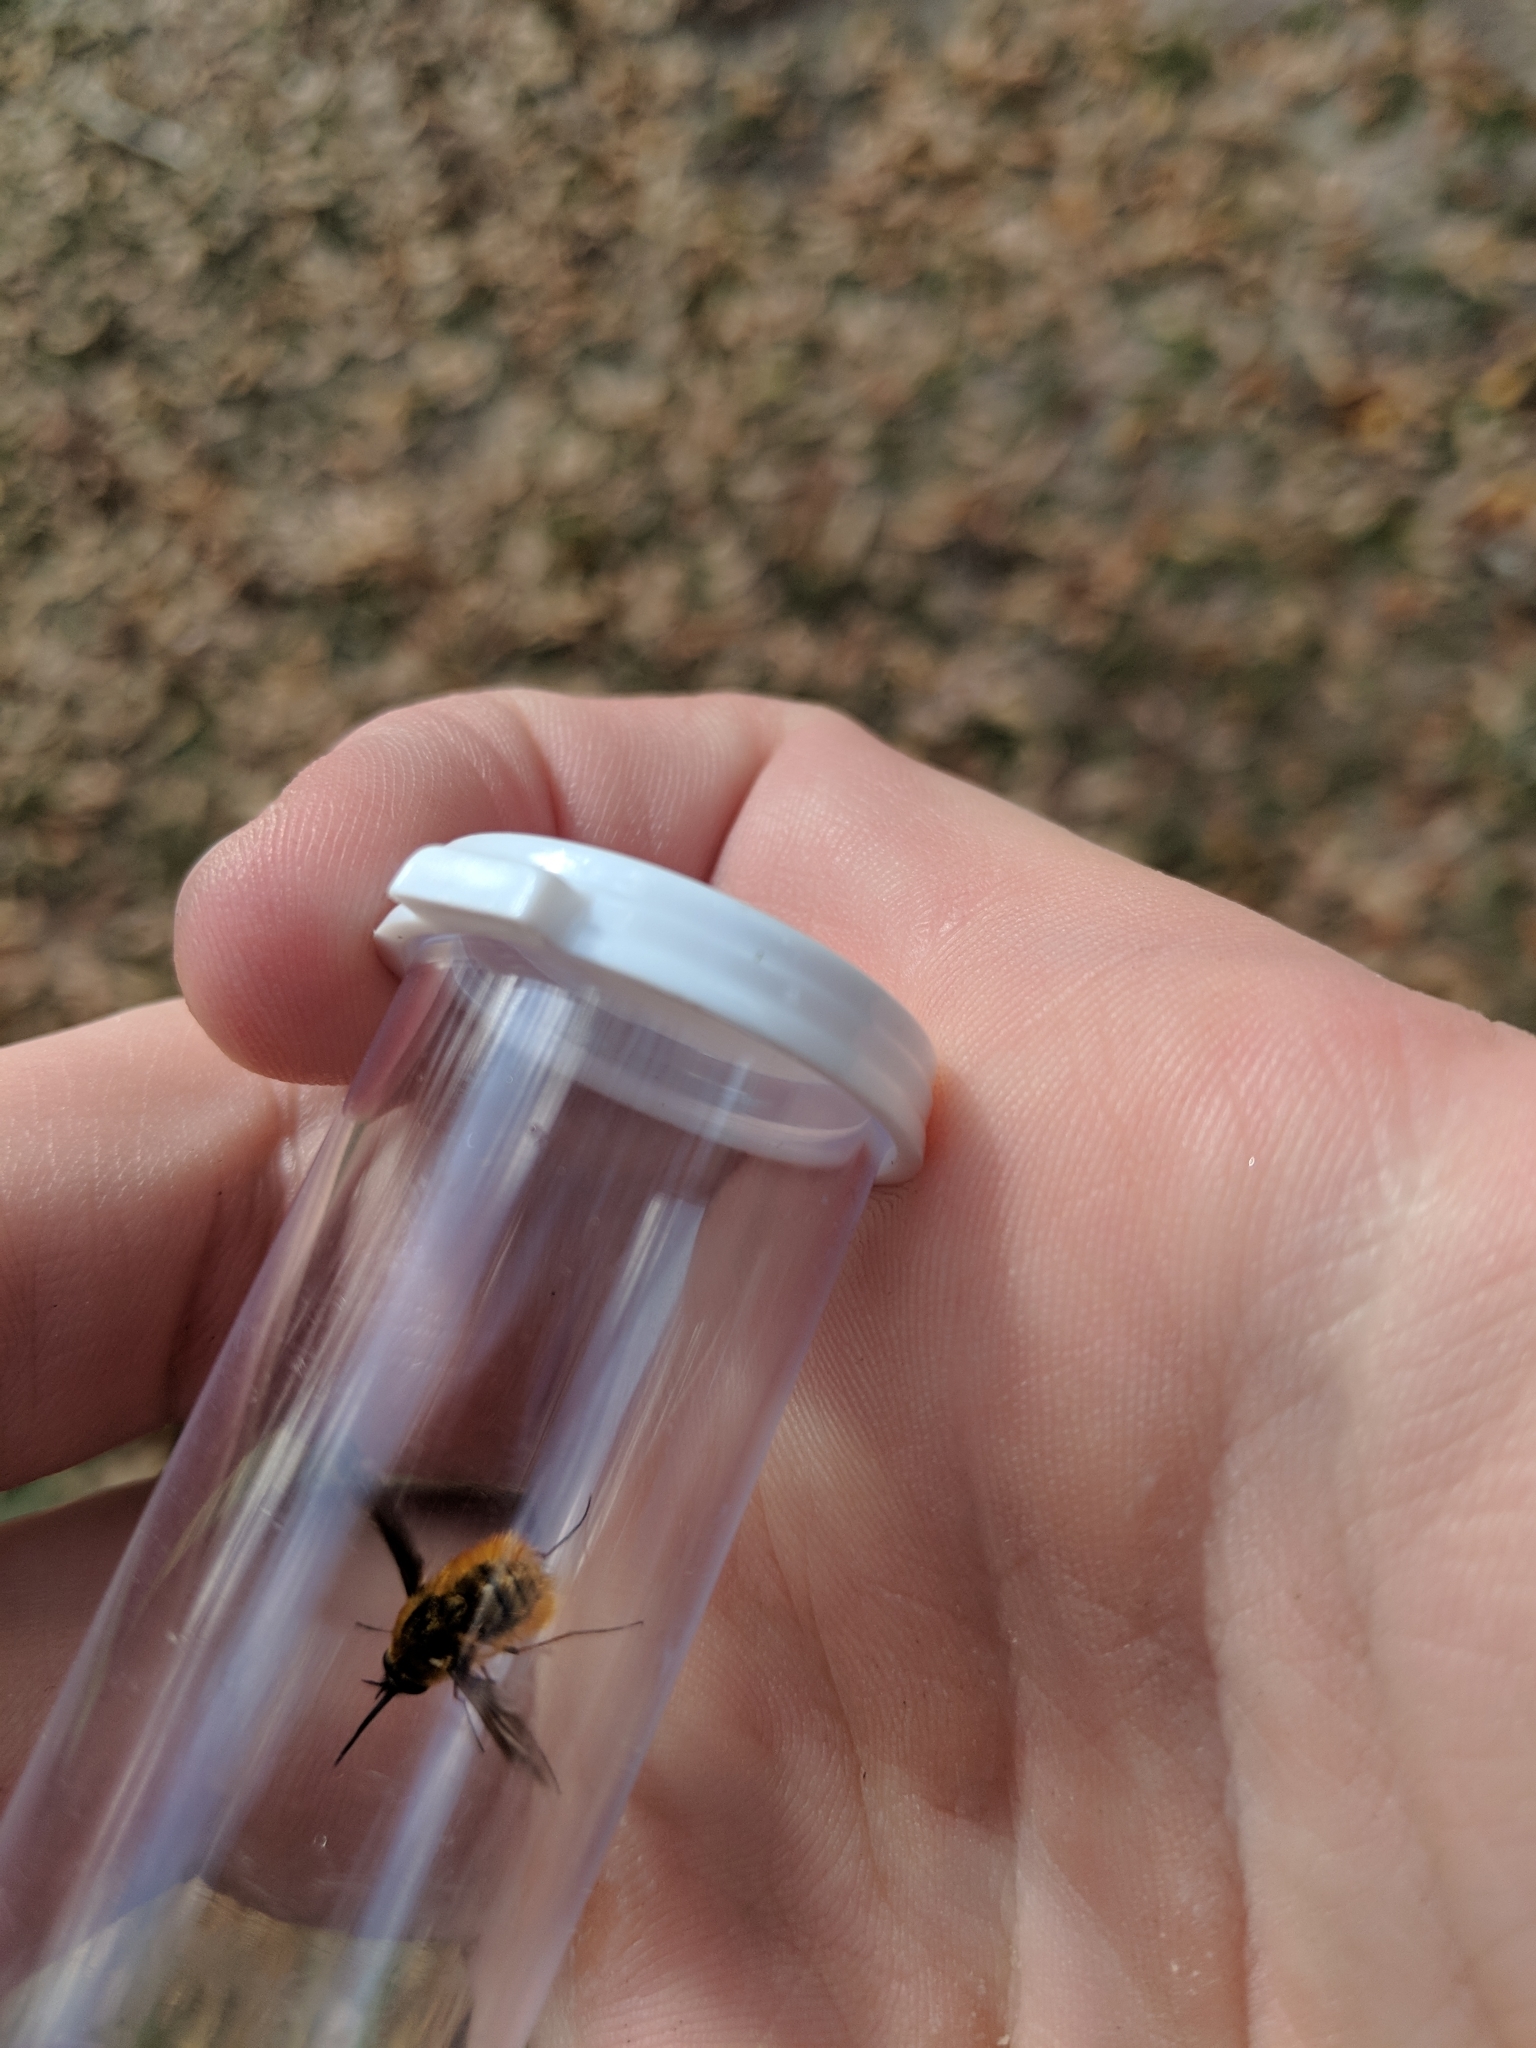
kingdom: Animalia
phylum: Arthropoda
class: Insecta
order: Diptera
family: Bombyliidae
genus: Bombylius
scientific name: Bombylius major
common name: Bee fly
